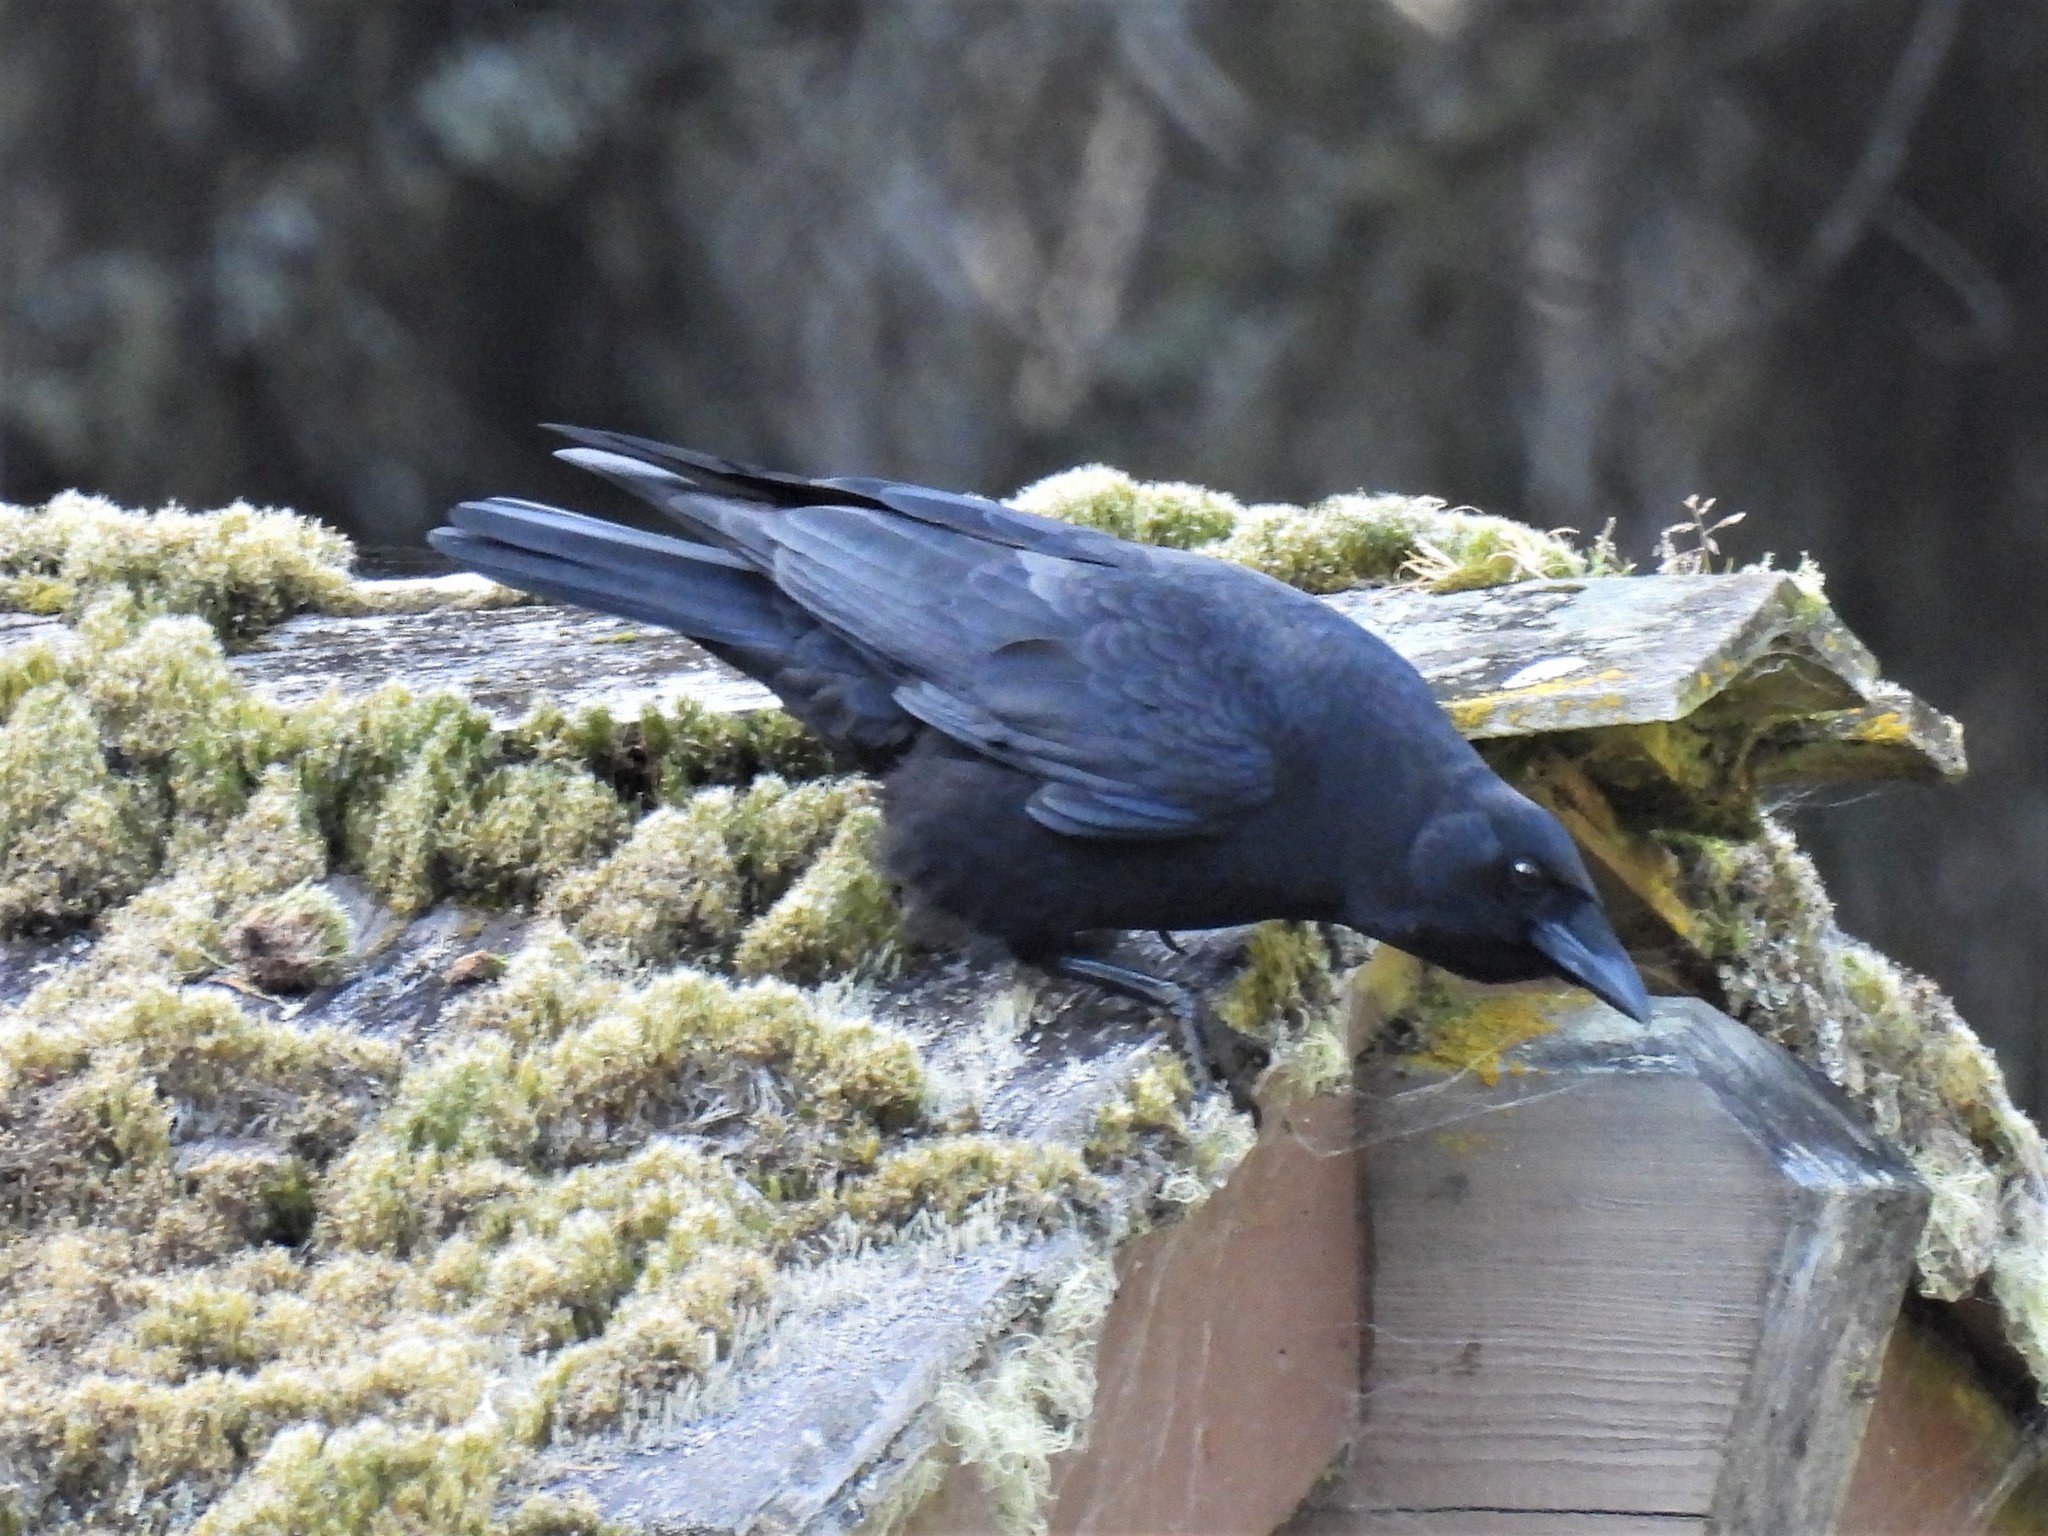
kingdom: Animalia
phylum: Chordata
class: Aves
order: Passeriformes
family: Corvidae
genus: Corvus
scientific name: Corvus brachyrhynchos
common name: American crow
